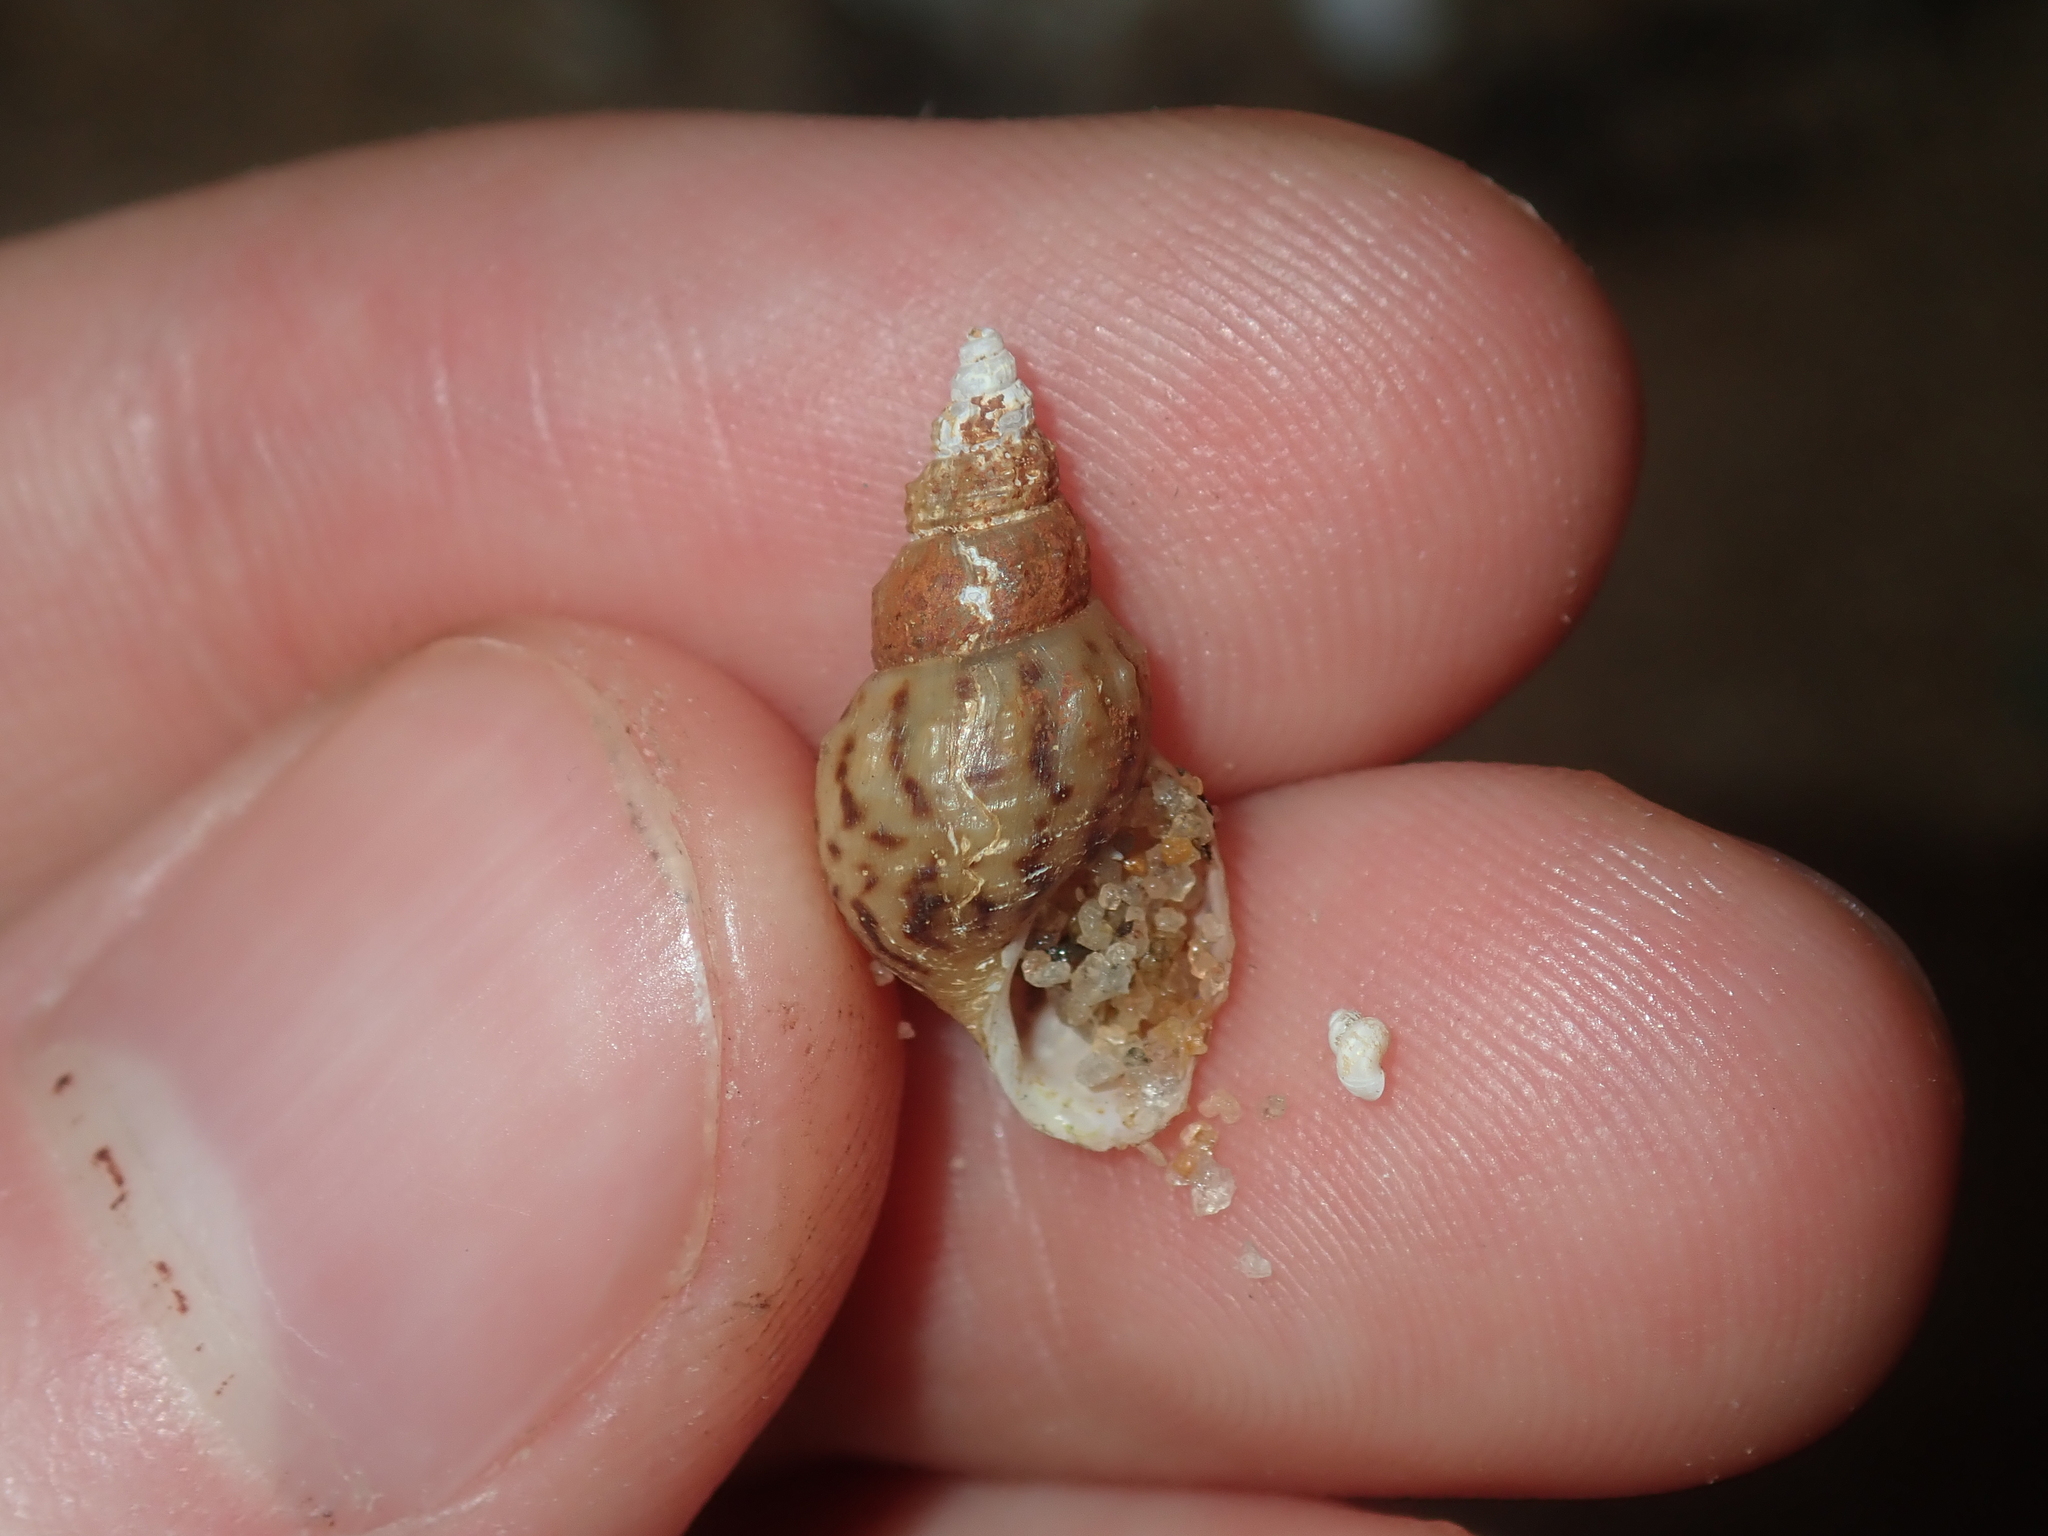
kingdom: Animalia
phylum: Mollusca
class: Gastropoda
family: Thiaridae
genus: Plotiopsis
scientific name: Plotiopsis balonnensis
